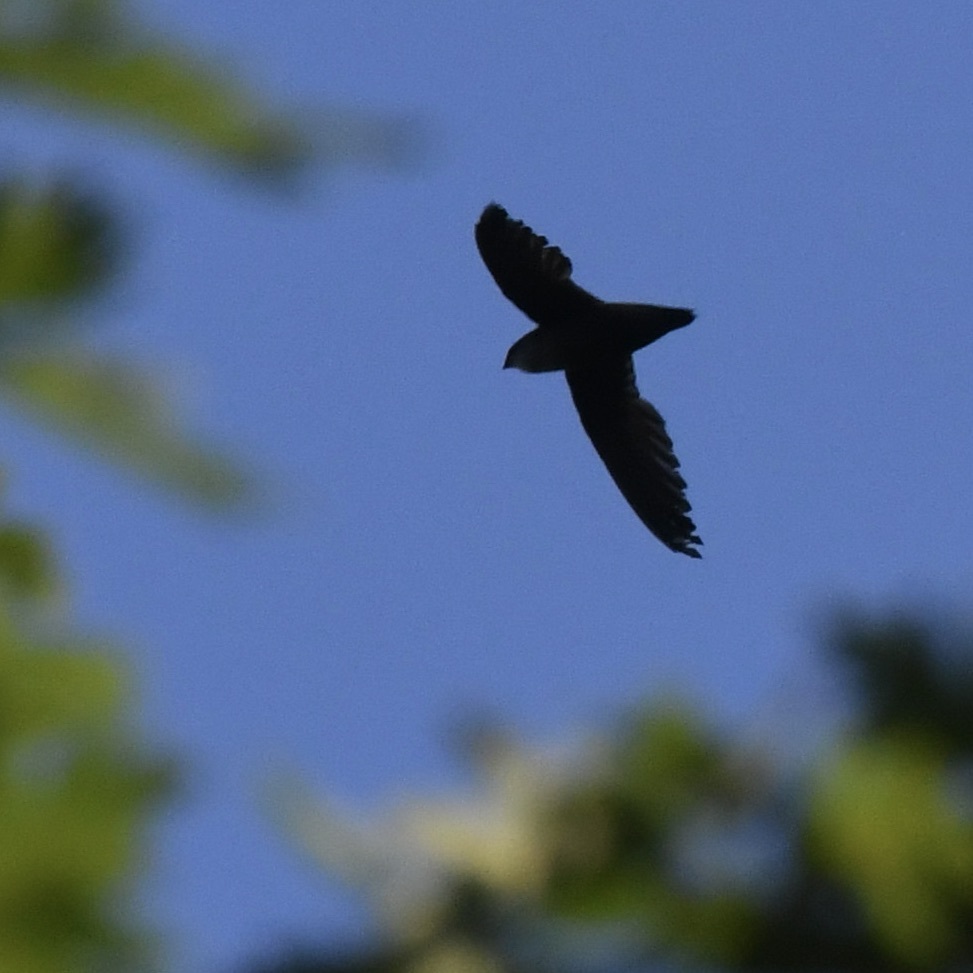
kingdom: Animalia
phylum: Chordata
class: Aves
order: Apodiformes
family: Apodidae
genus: Chaetura
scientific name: Chaetura pelagica
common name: Chimney swift
